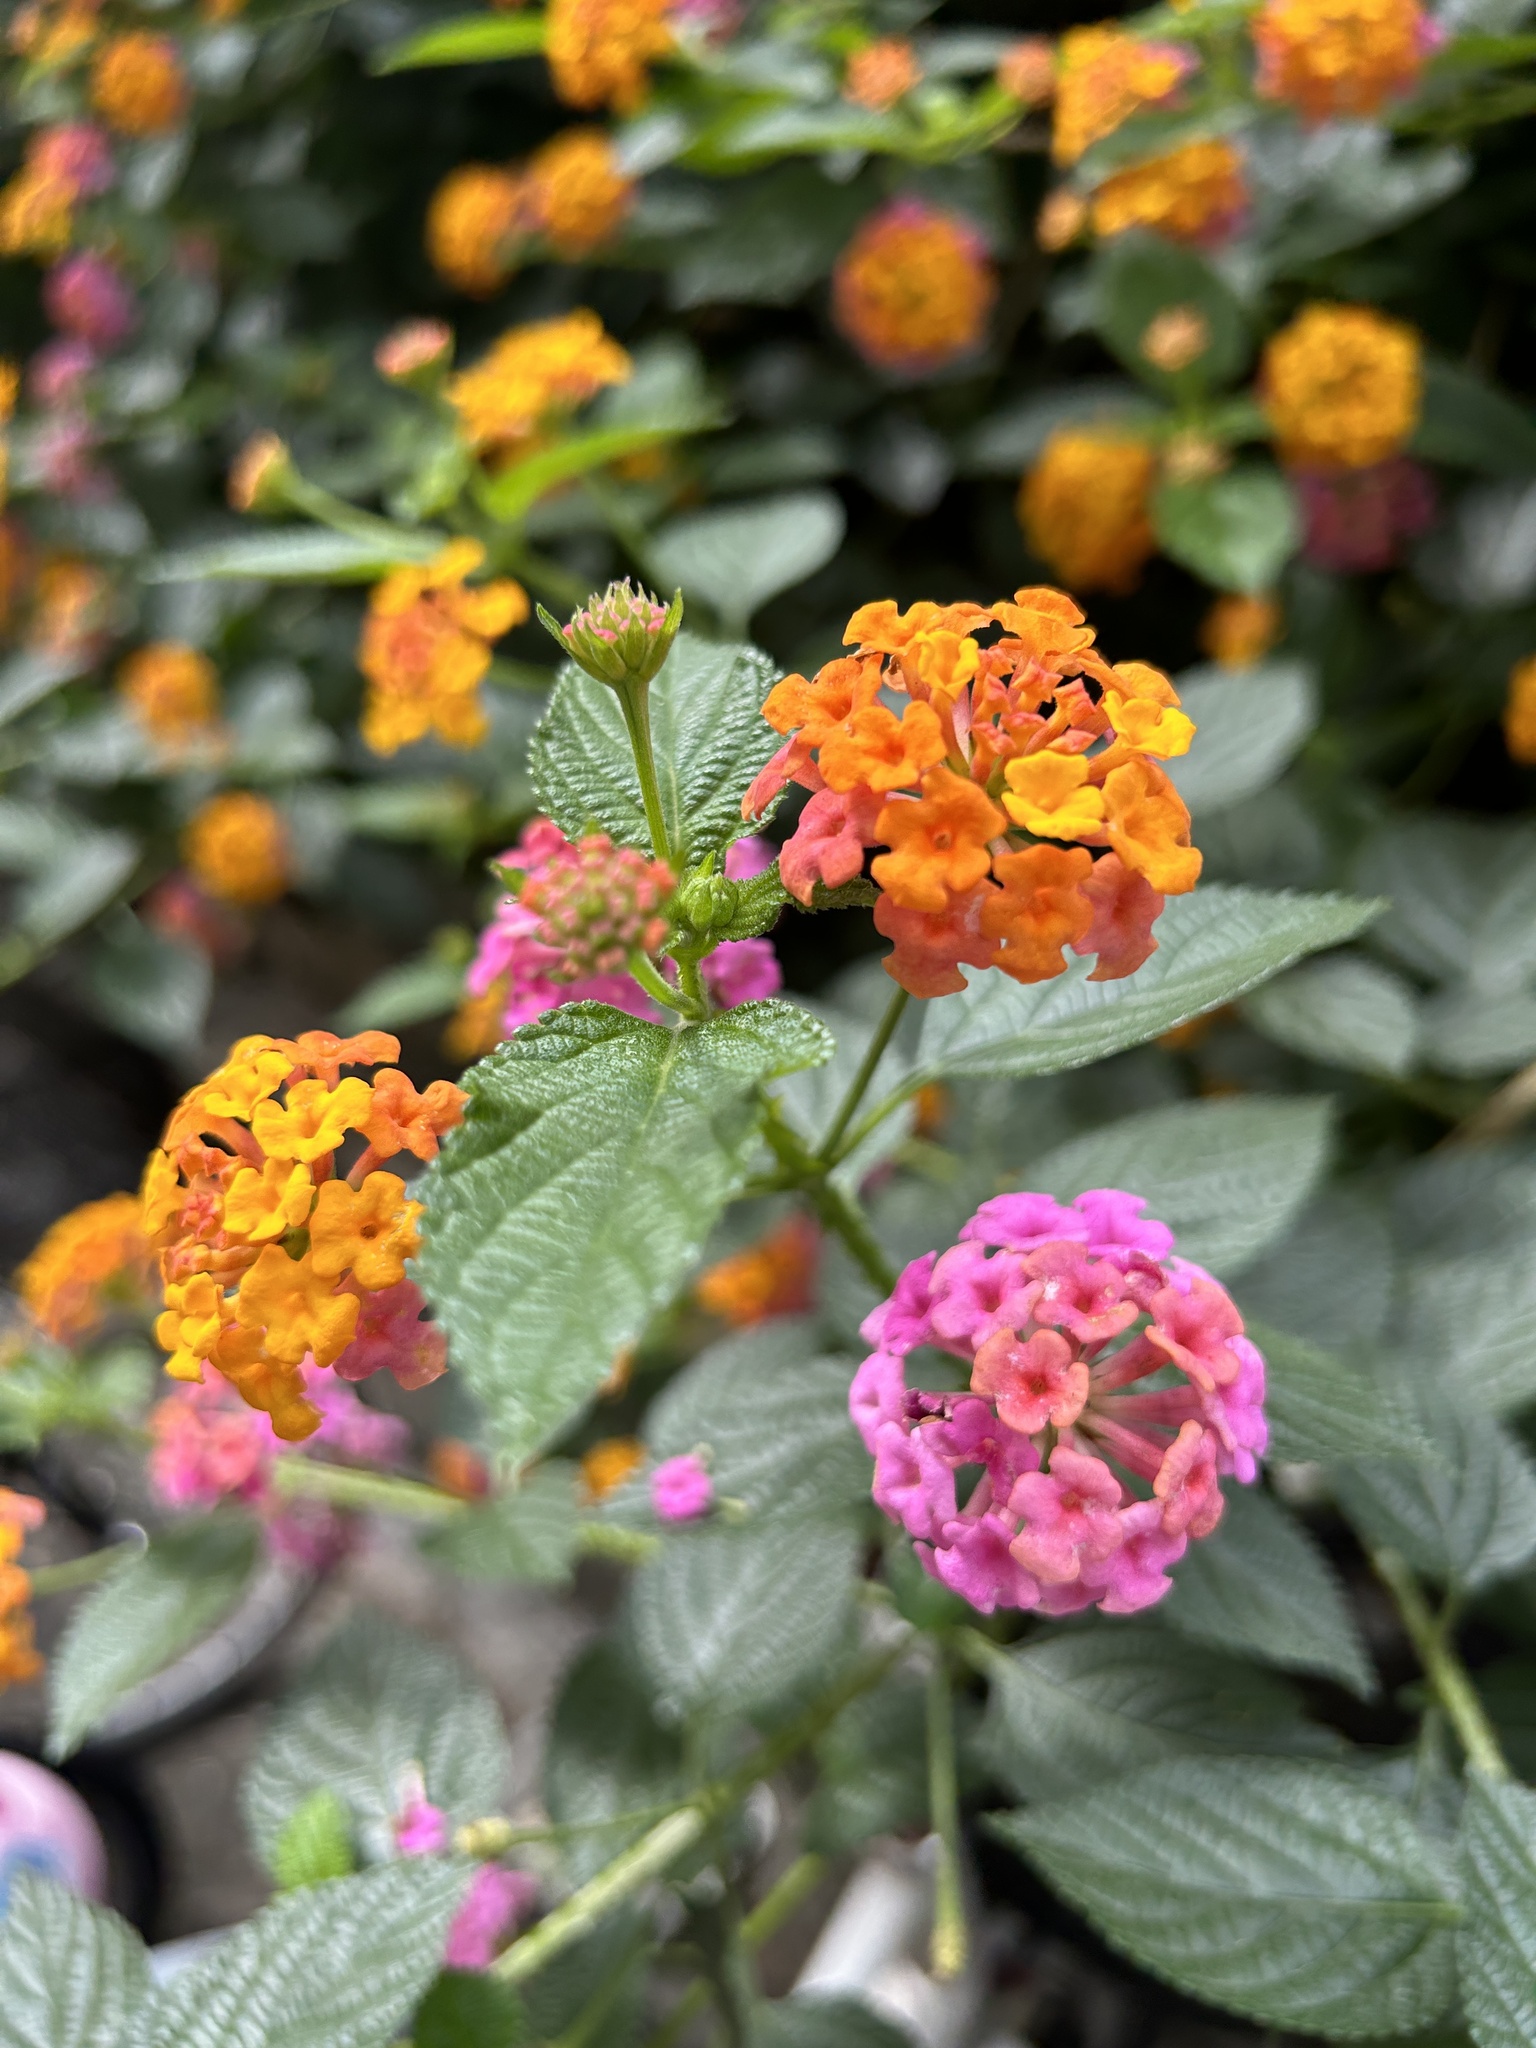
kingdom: Plantae
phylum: Tracheophyta
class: Magnoliopsida
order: Lamiales
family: Verbenaceae
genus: Lantana
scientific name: Lantana camara
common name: Lantana
